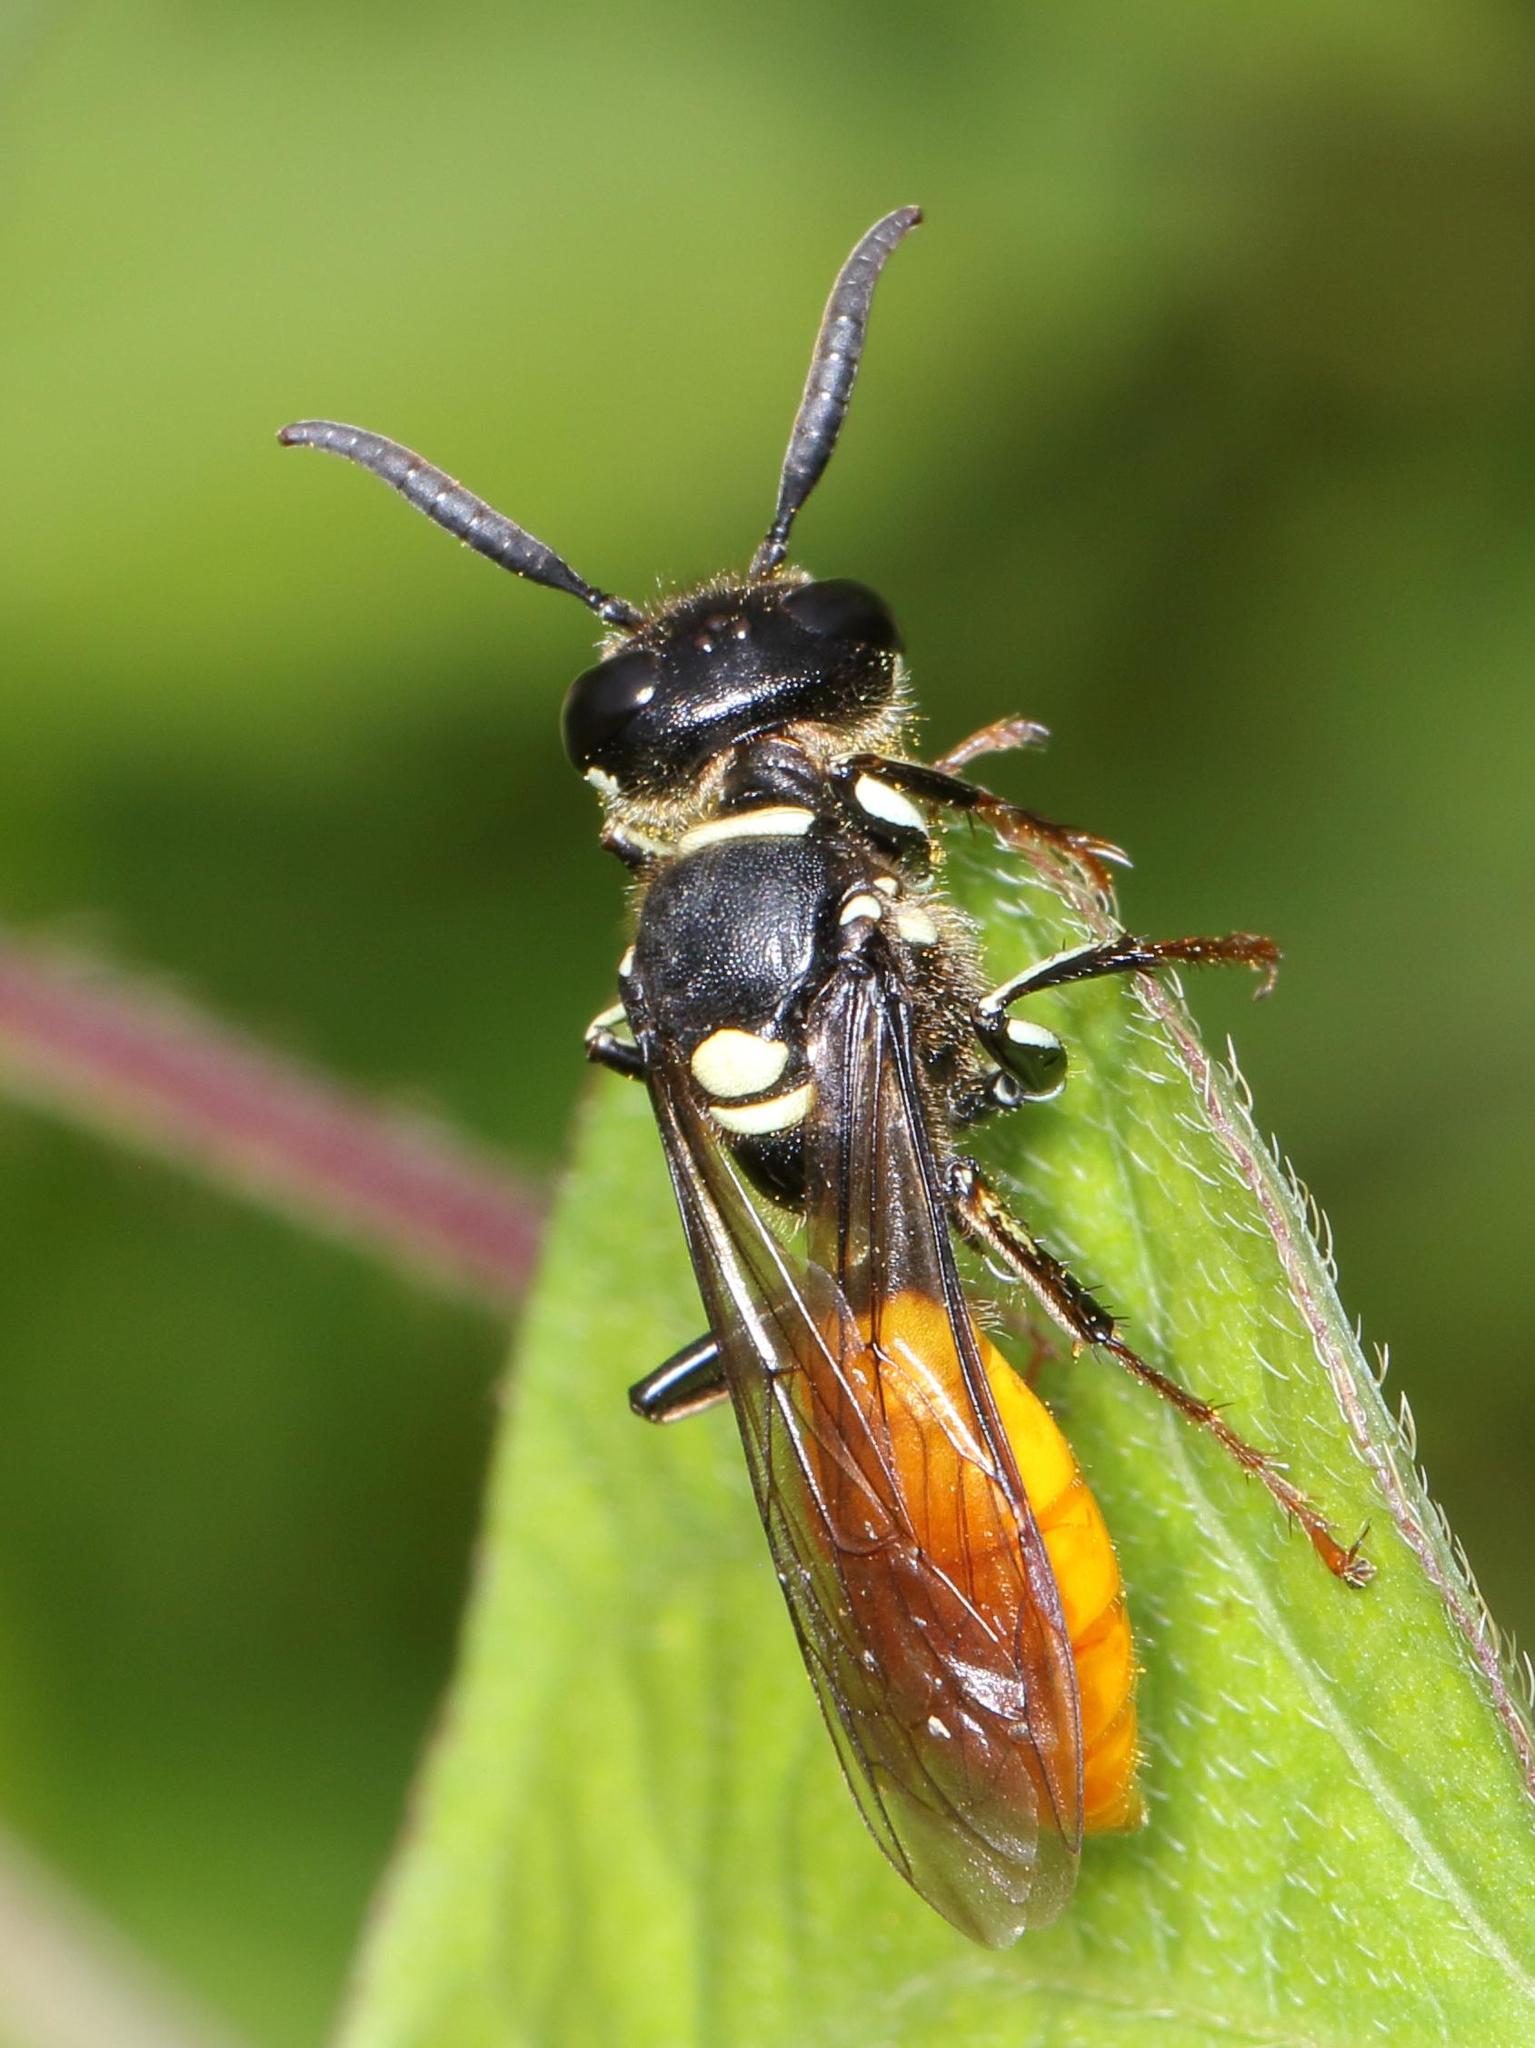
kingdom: Animalia
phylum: Arthropoda
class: Insecta
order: Hymenoptera
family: Crabronidae
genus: Philanthus
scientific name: Philanthus loeflingi
